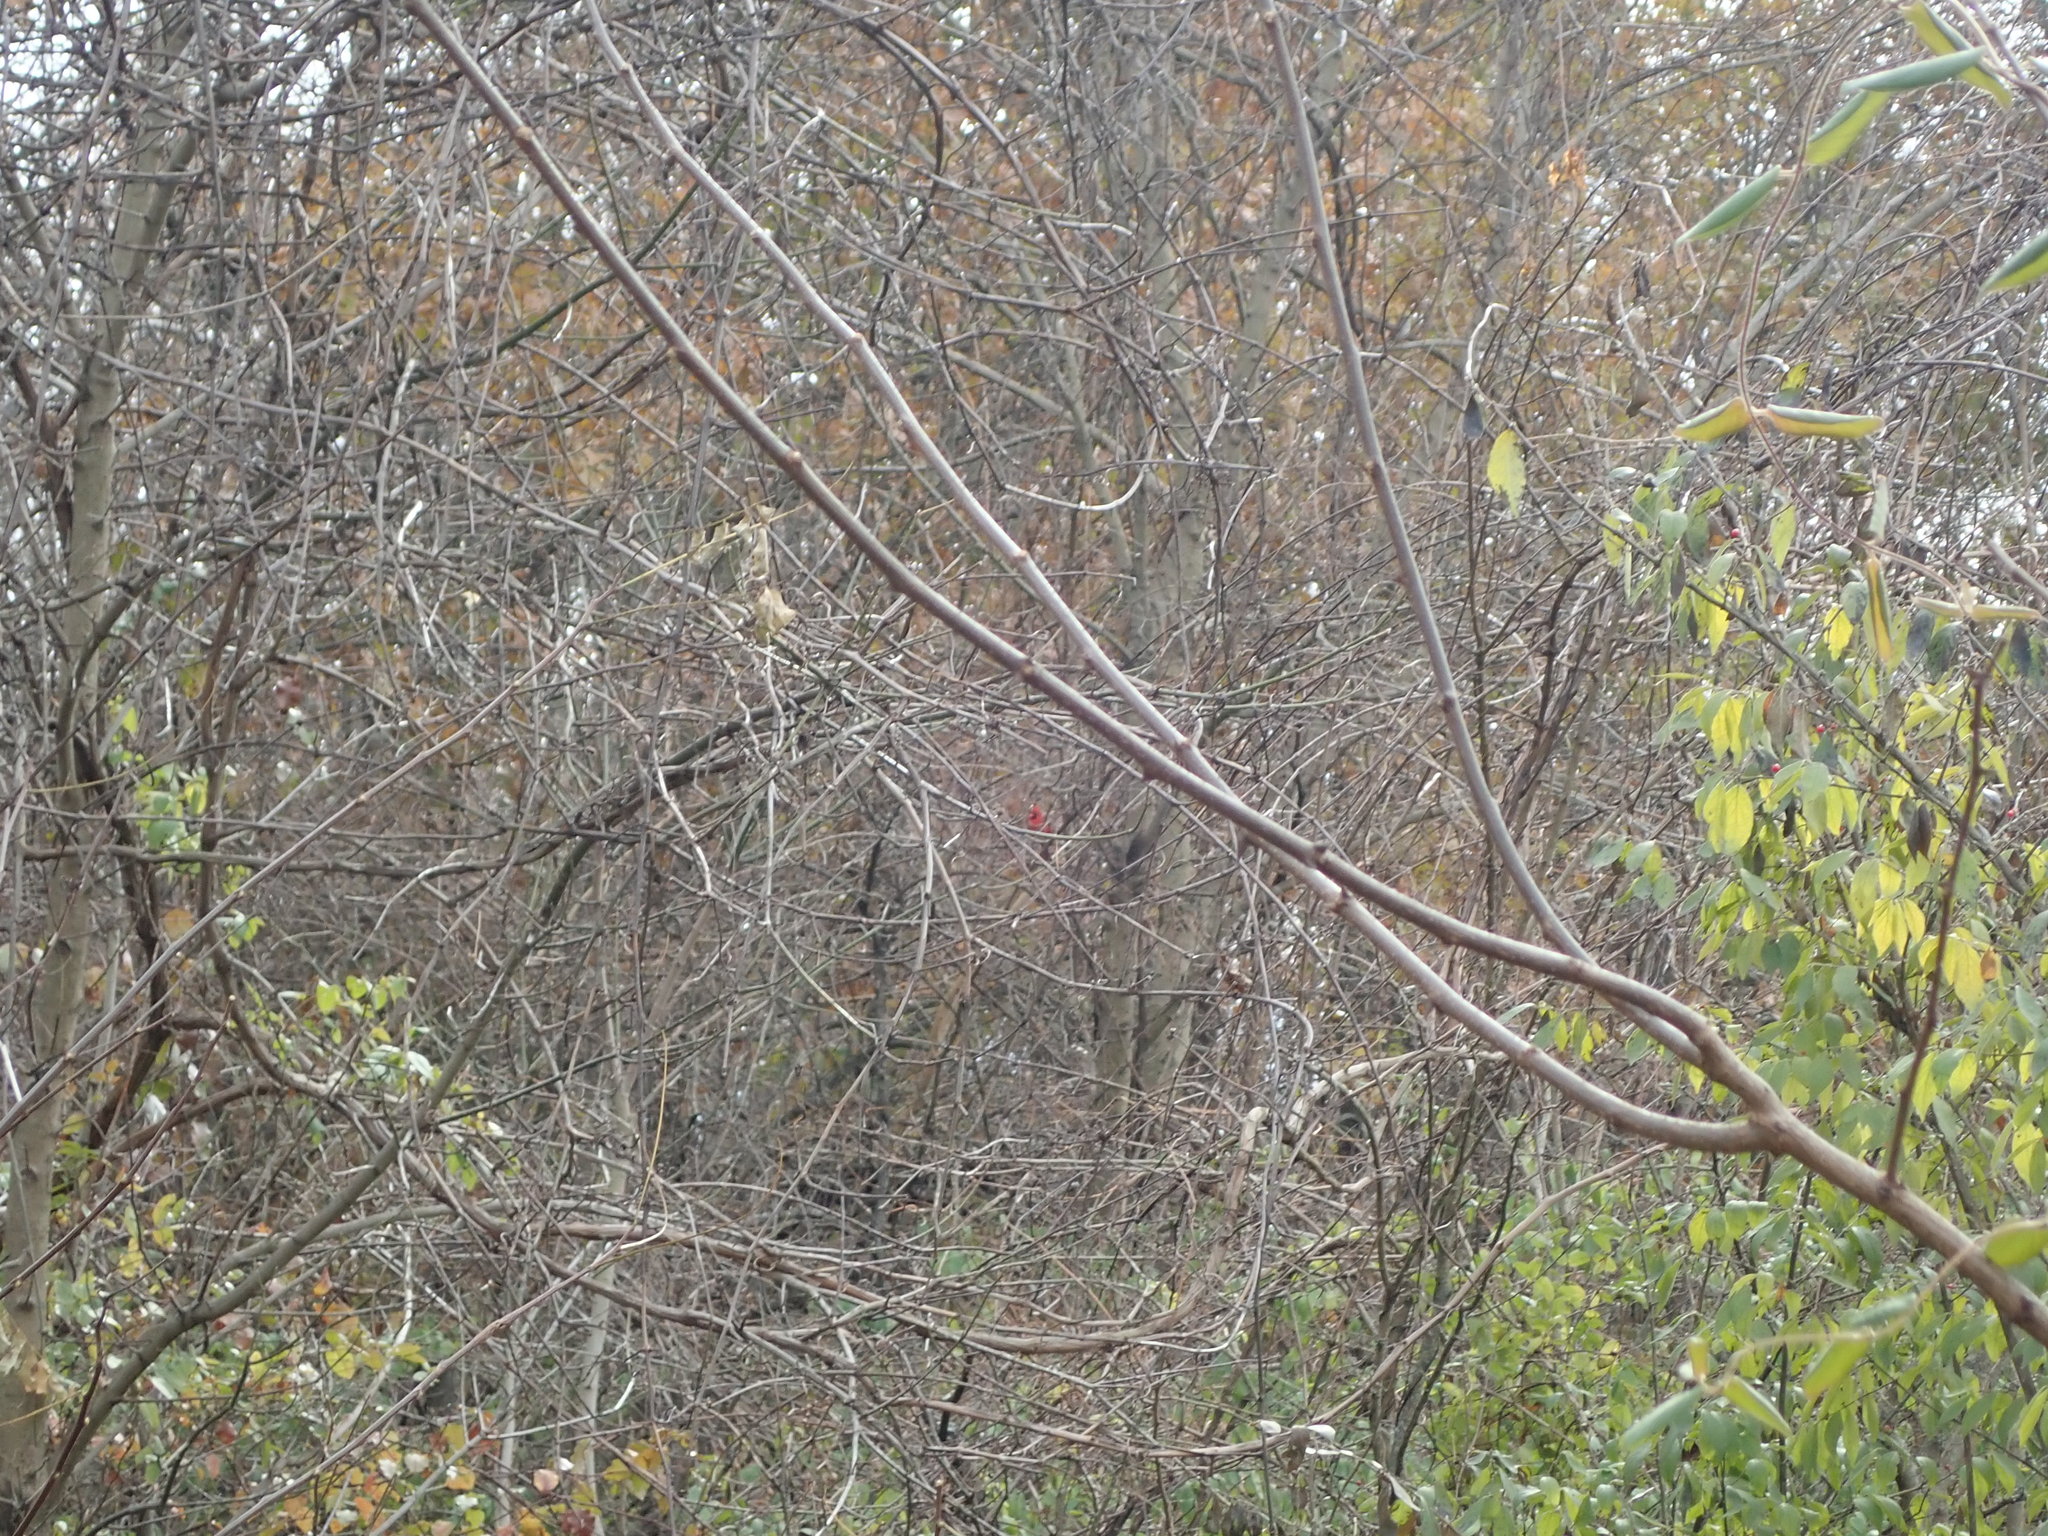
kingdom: Animalia
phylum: Chordata
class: Aves
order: Passeriformes
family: Cardinalidae
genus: Cardinalis
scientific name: Cardinalis cardinalis
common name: Northern cardinal
